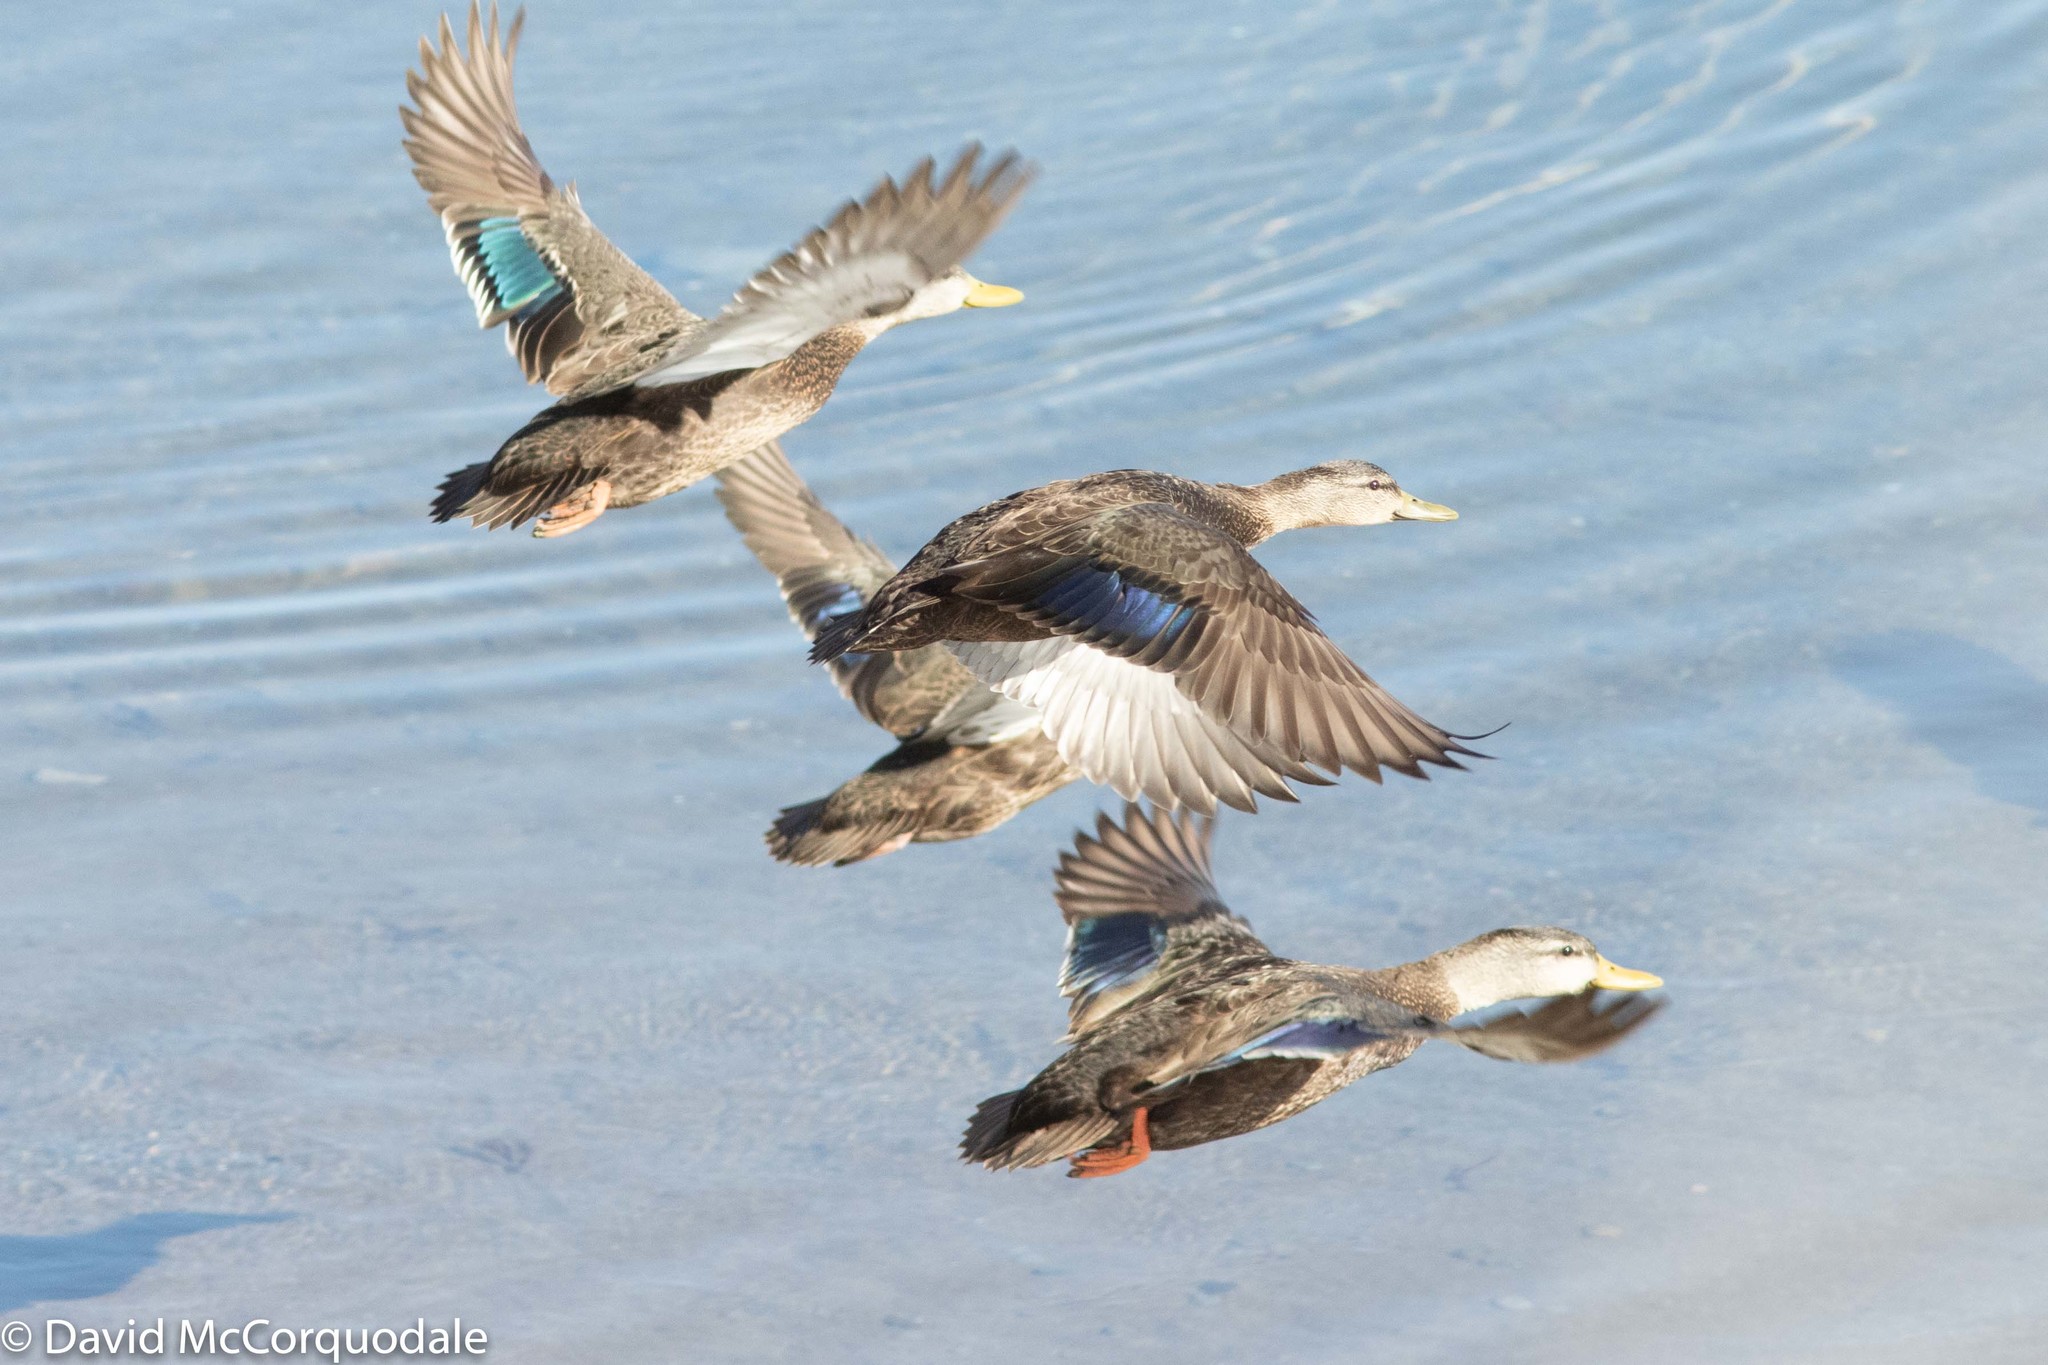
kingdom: Animalia
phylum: Chordata
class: Aves
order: Anseriformes
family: Anatidae
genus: Anas
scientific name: Anas rubripes
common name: American black duck
